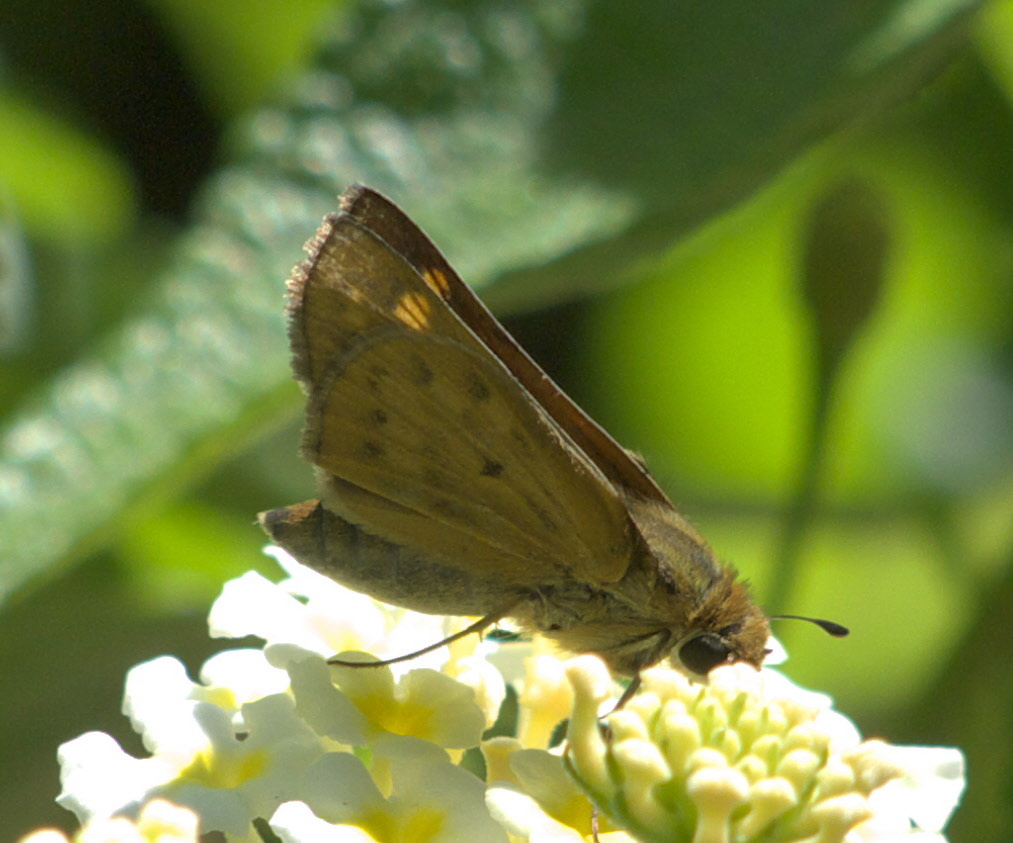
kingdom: Animalia
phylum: Arthropoda
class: Insecta
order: Lepidoptera
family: Hesperiidae
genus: Hylephila
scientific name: Hylephila phyleus
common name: Fiery skipper
